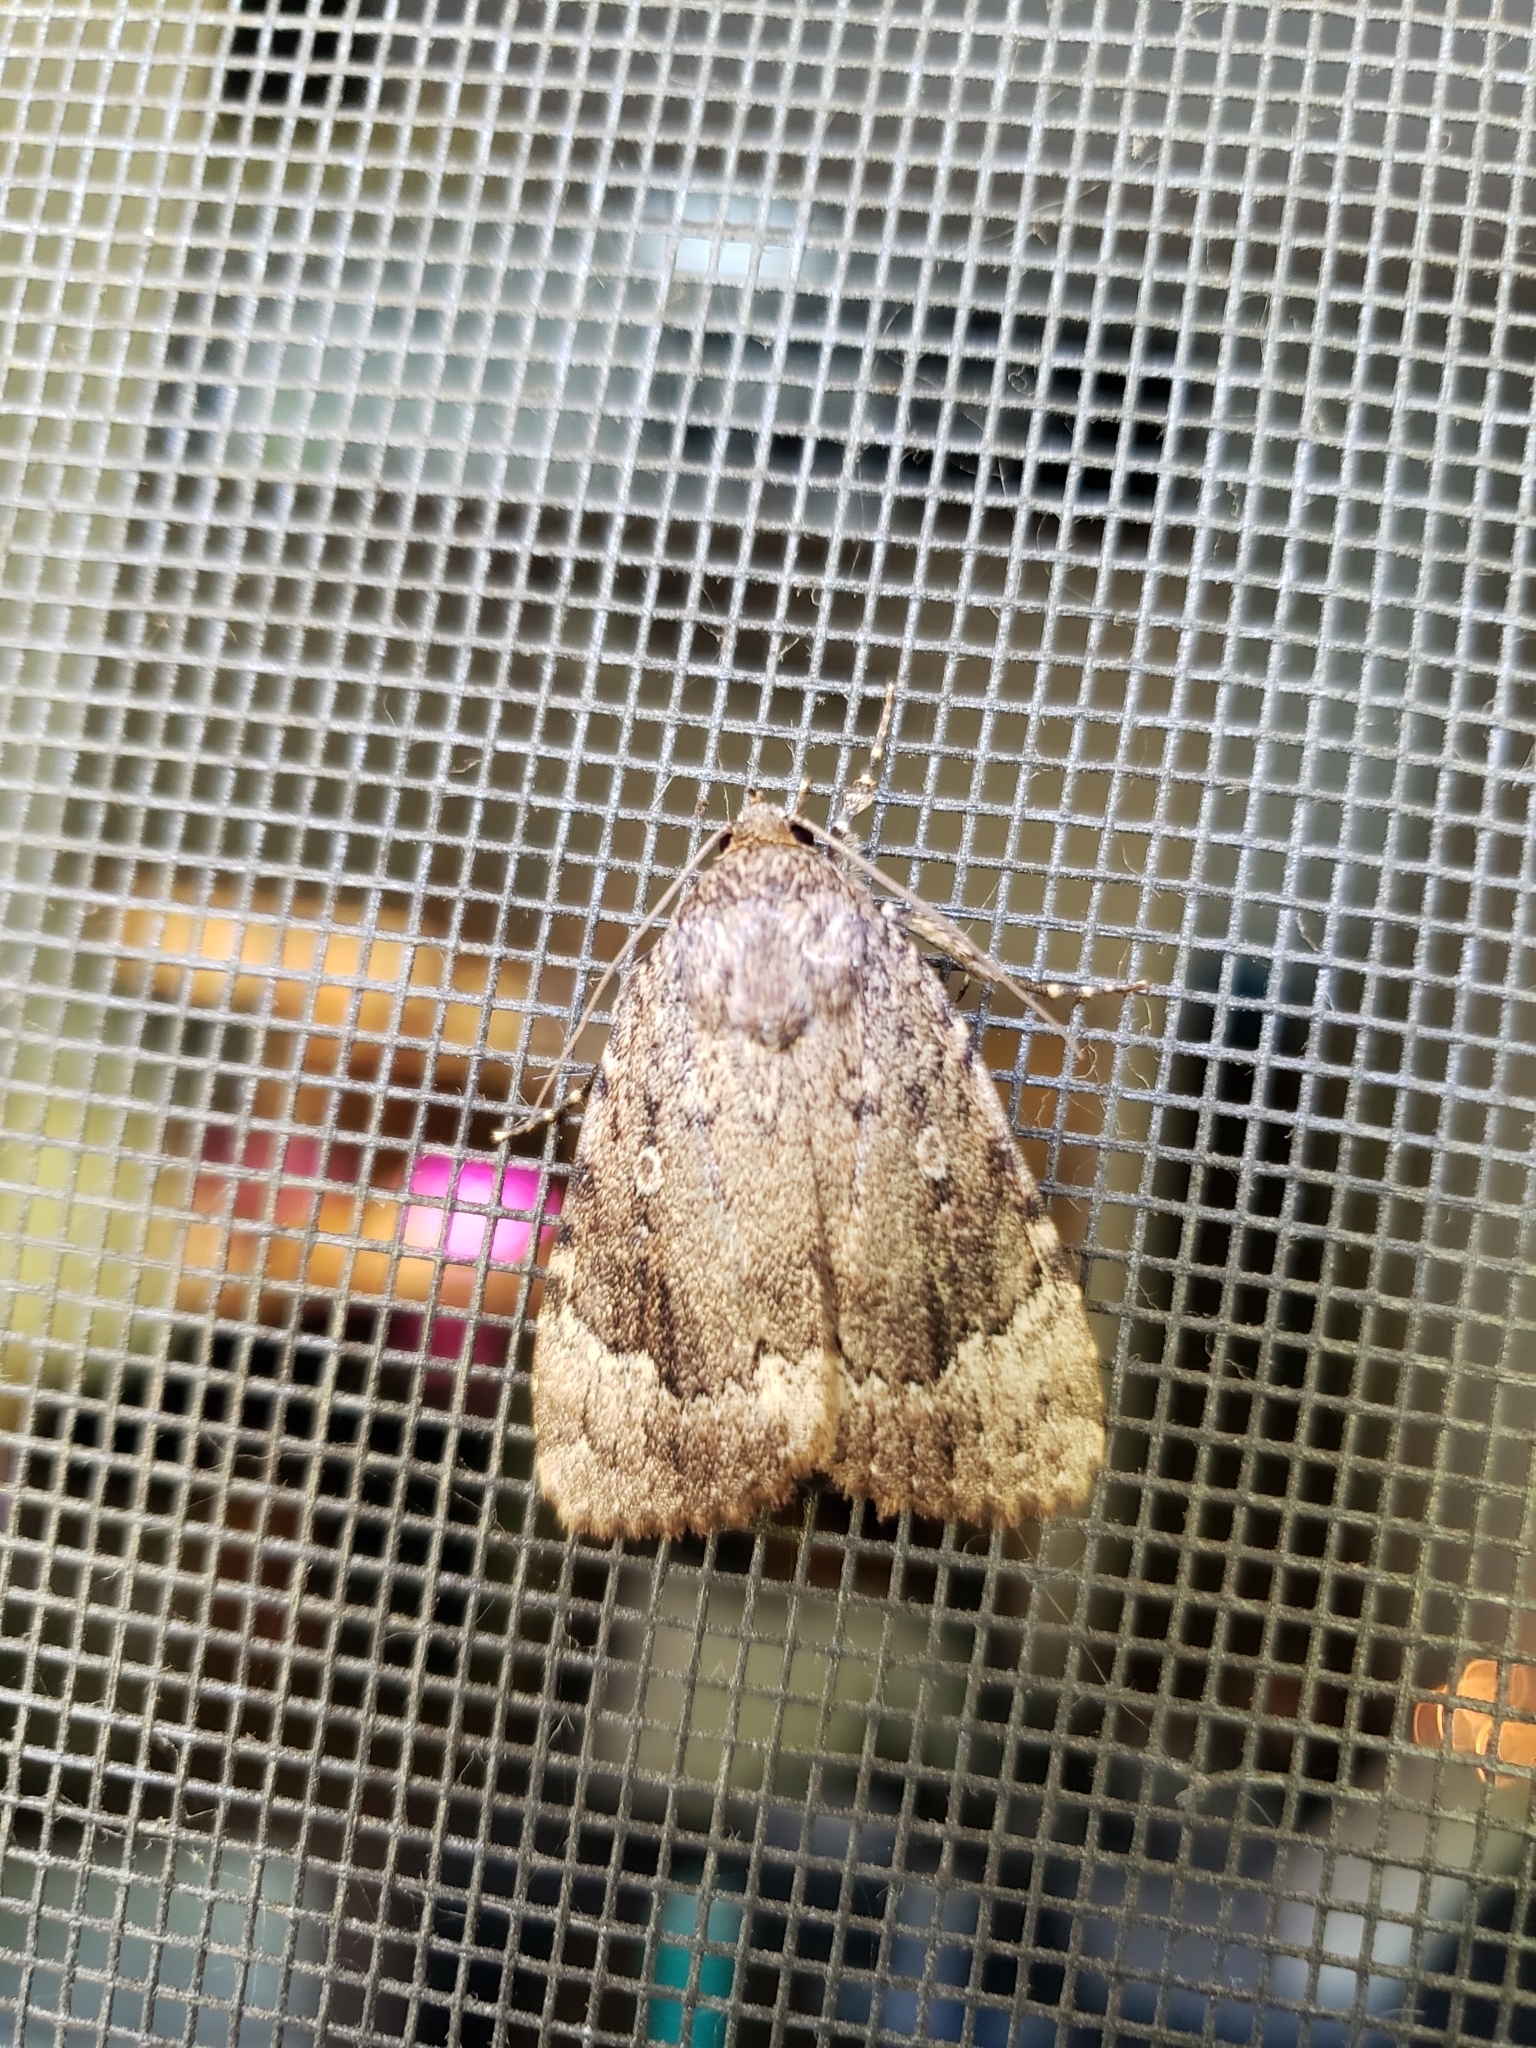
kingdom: Animalia
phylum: Arthropoda
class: Insecta
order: Lepidoptera
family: Noctuidae
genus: Amphipyra
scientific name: Amphipyra pyramidoides
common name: American copper underwing
